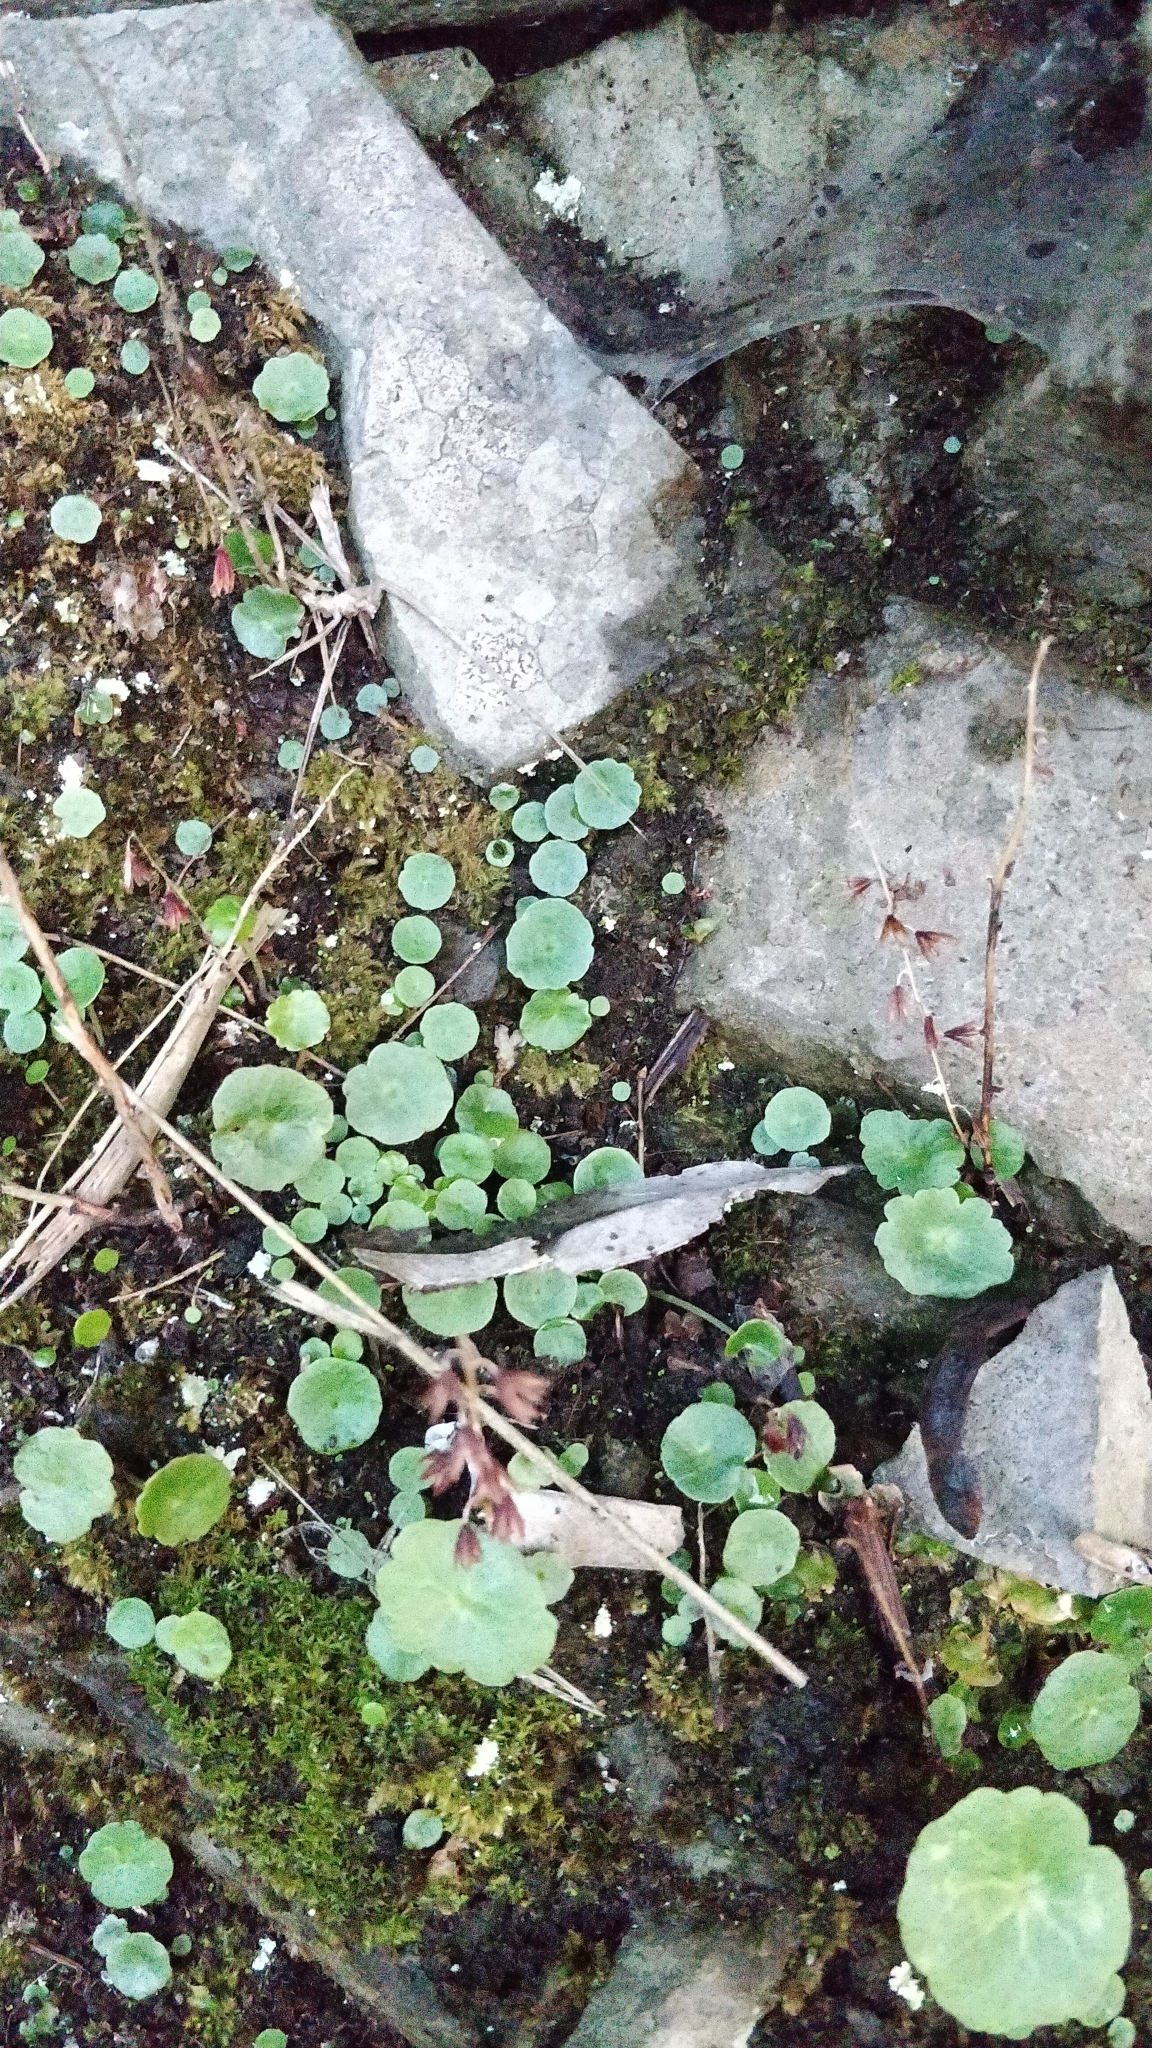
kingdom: Plantae
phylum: Tracheophyta
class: Magnoliopsida
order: Saxifragales
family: Crassulaceae
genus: Umbilicus
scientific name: Umbilicus rupestris
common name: Navelwort
